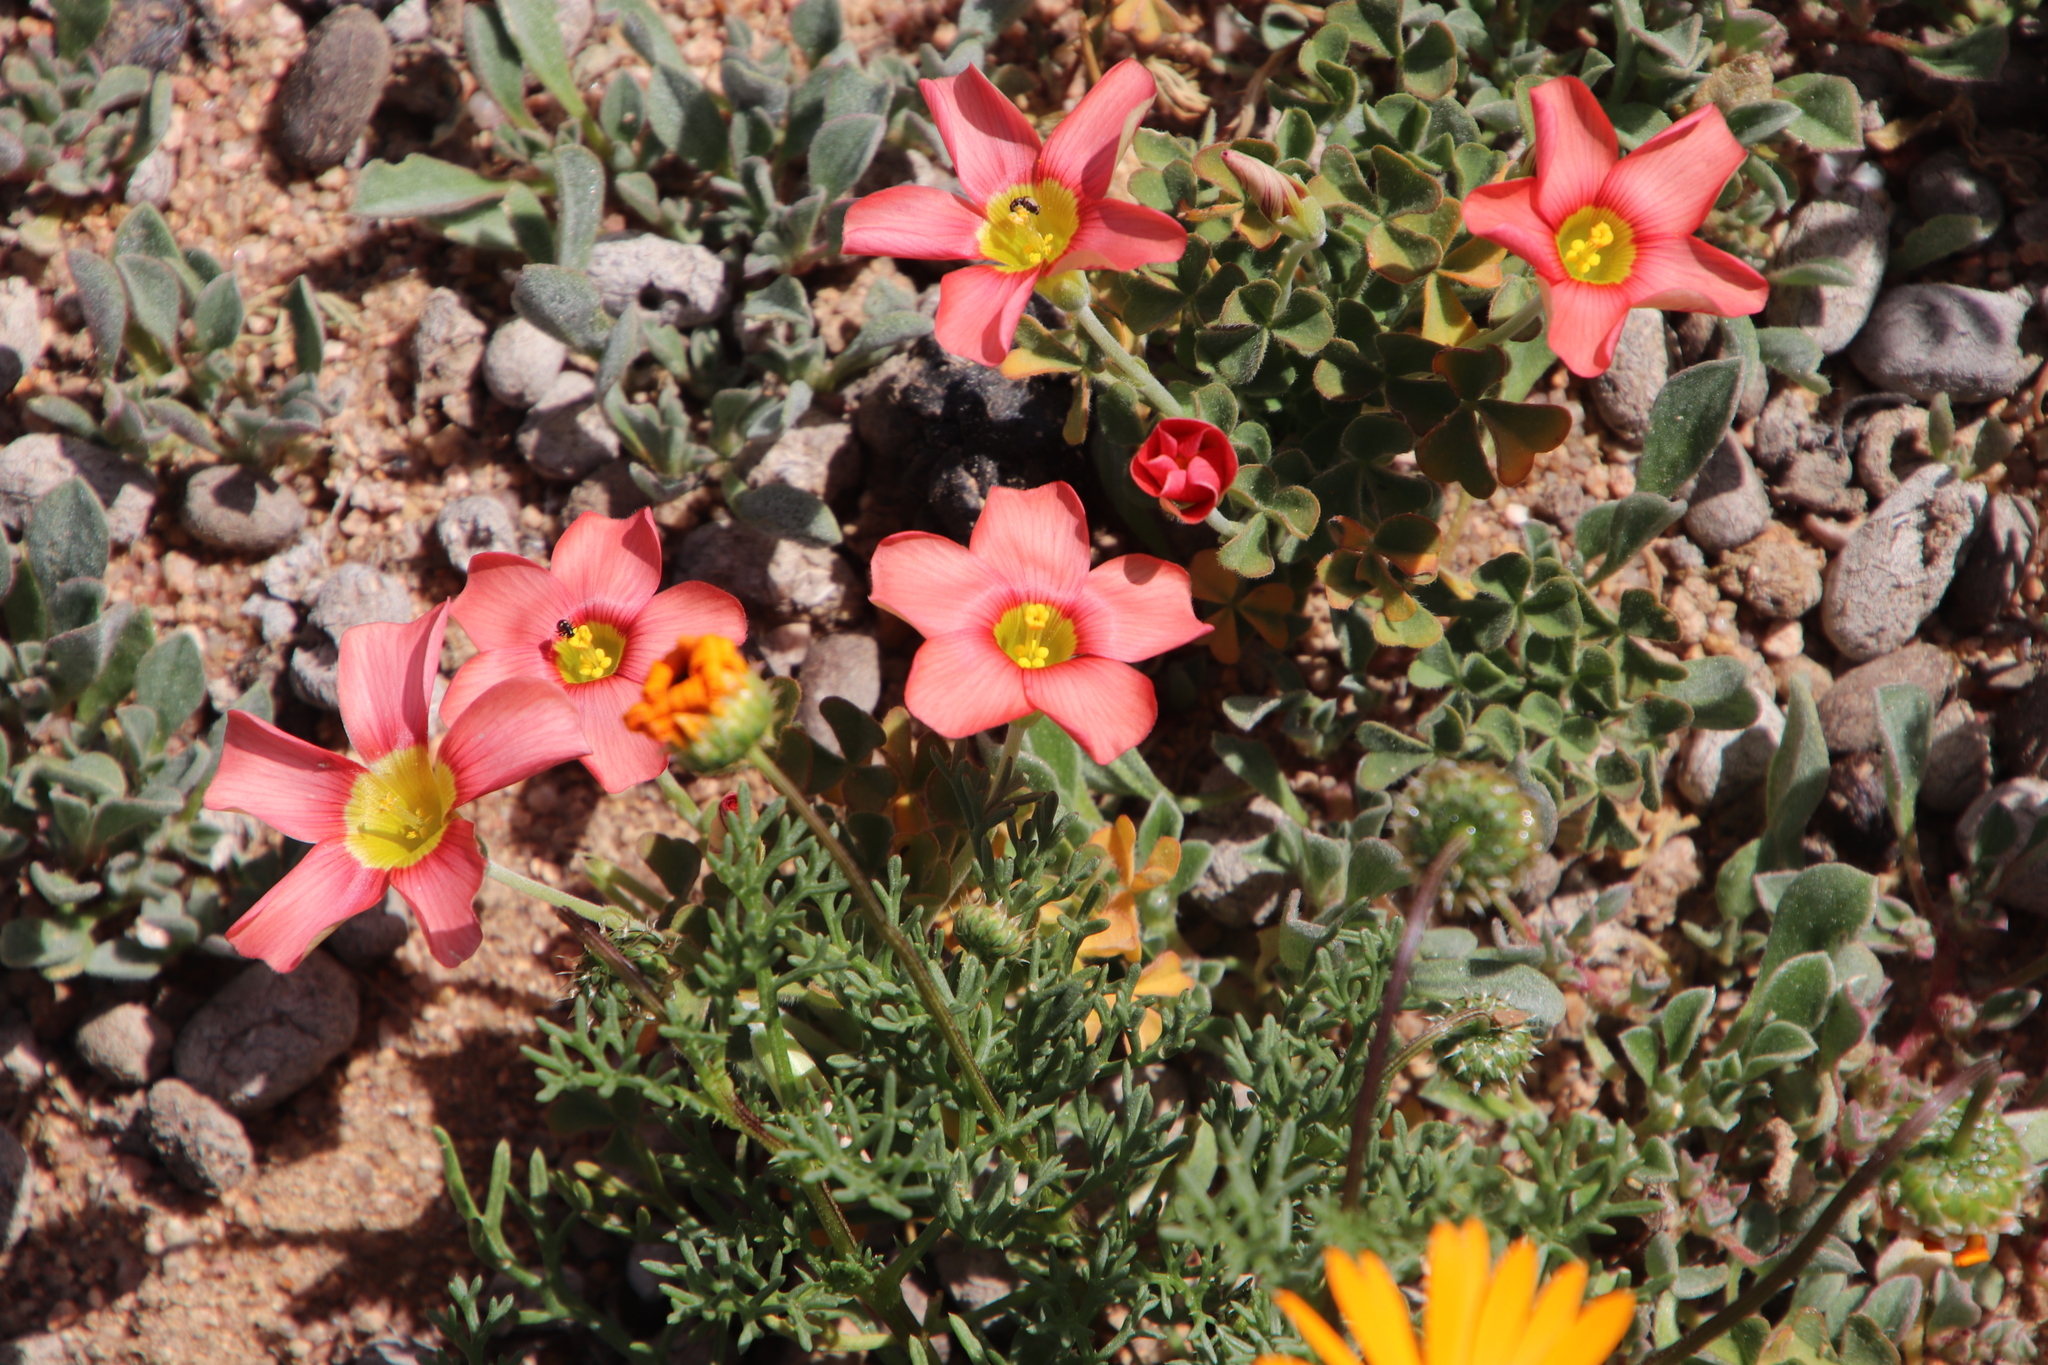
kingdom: Plantae
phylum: Tracheophyta
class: Magnoliopsida
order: Oxalidales
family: Oxalidaceae
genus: Oxalis
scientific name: Oxalis obtusa
